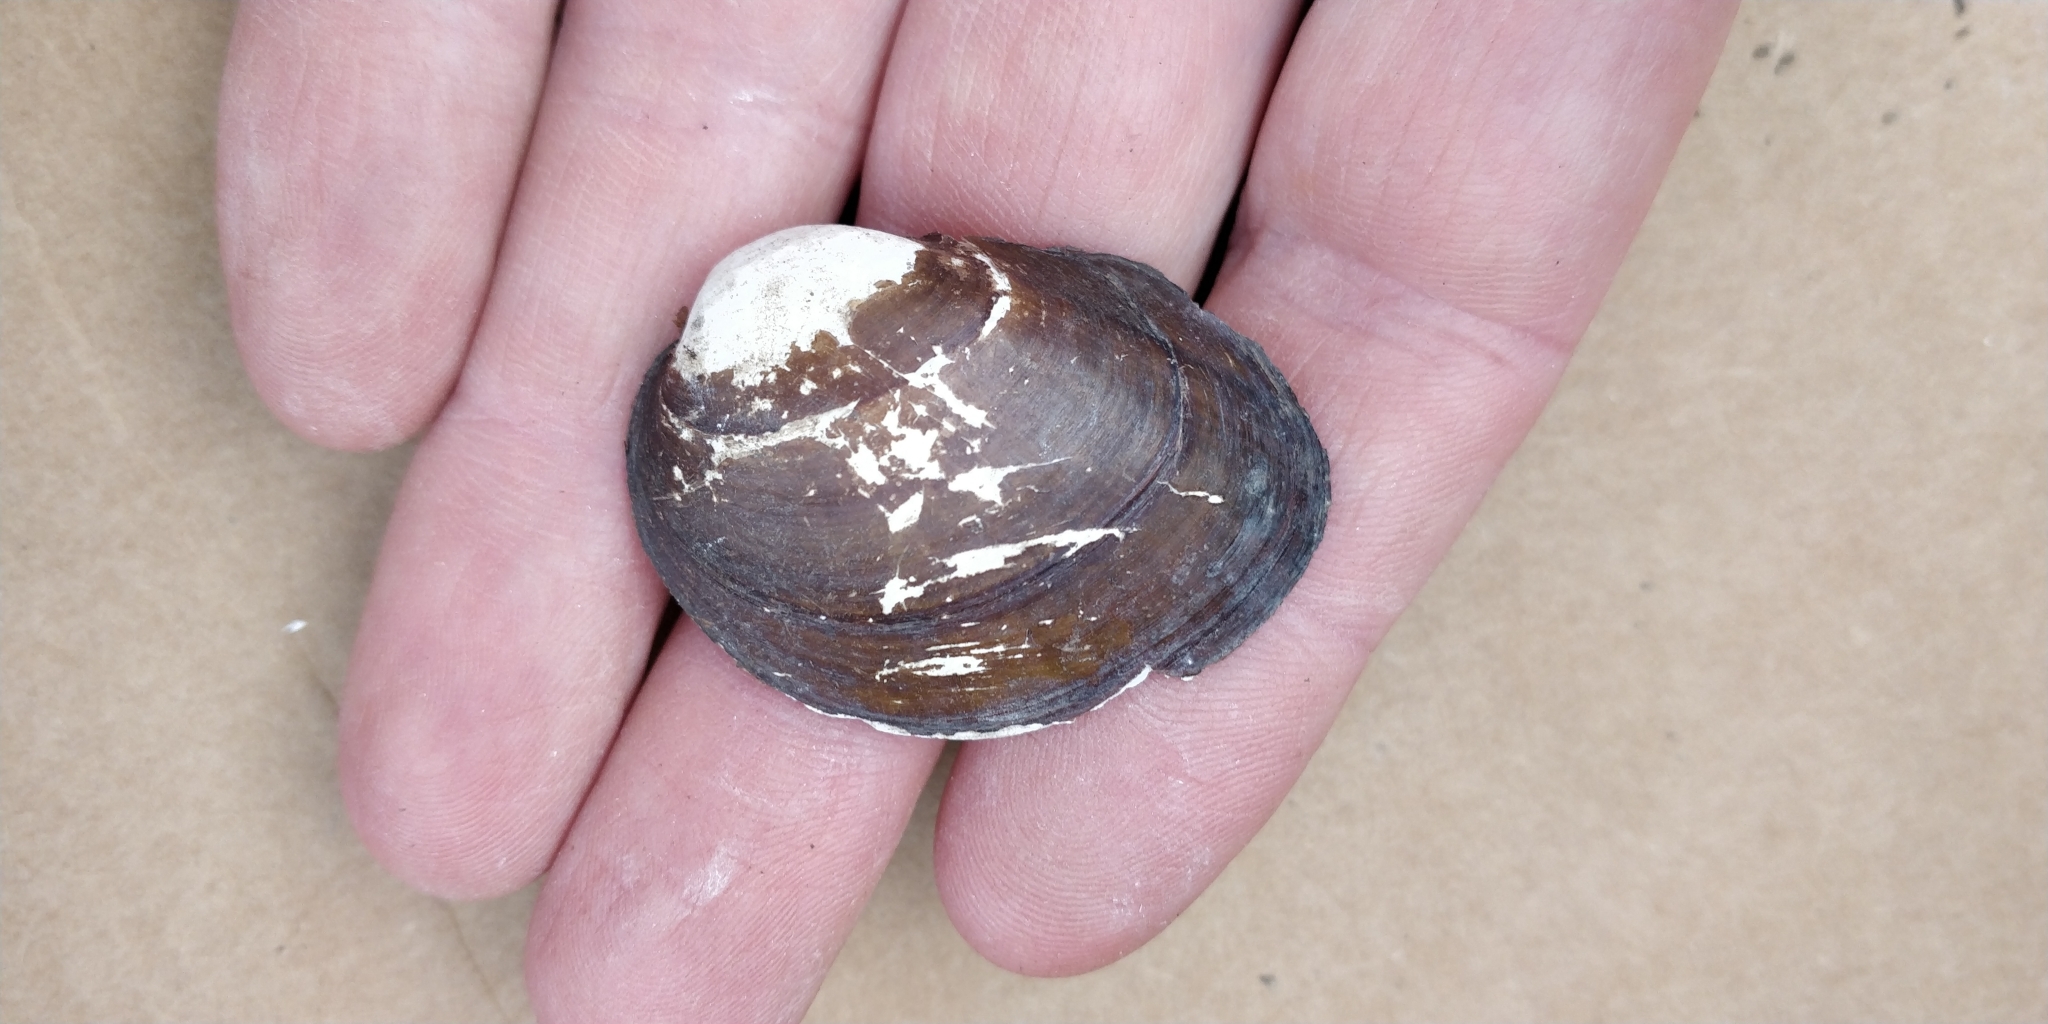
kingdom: Animalia
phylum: Mollusca
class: Bivalvia
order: Unionida
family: Unionidae
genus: Obovaria
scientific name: Obovaria olivaria
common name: Hickorynut
